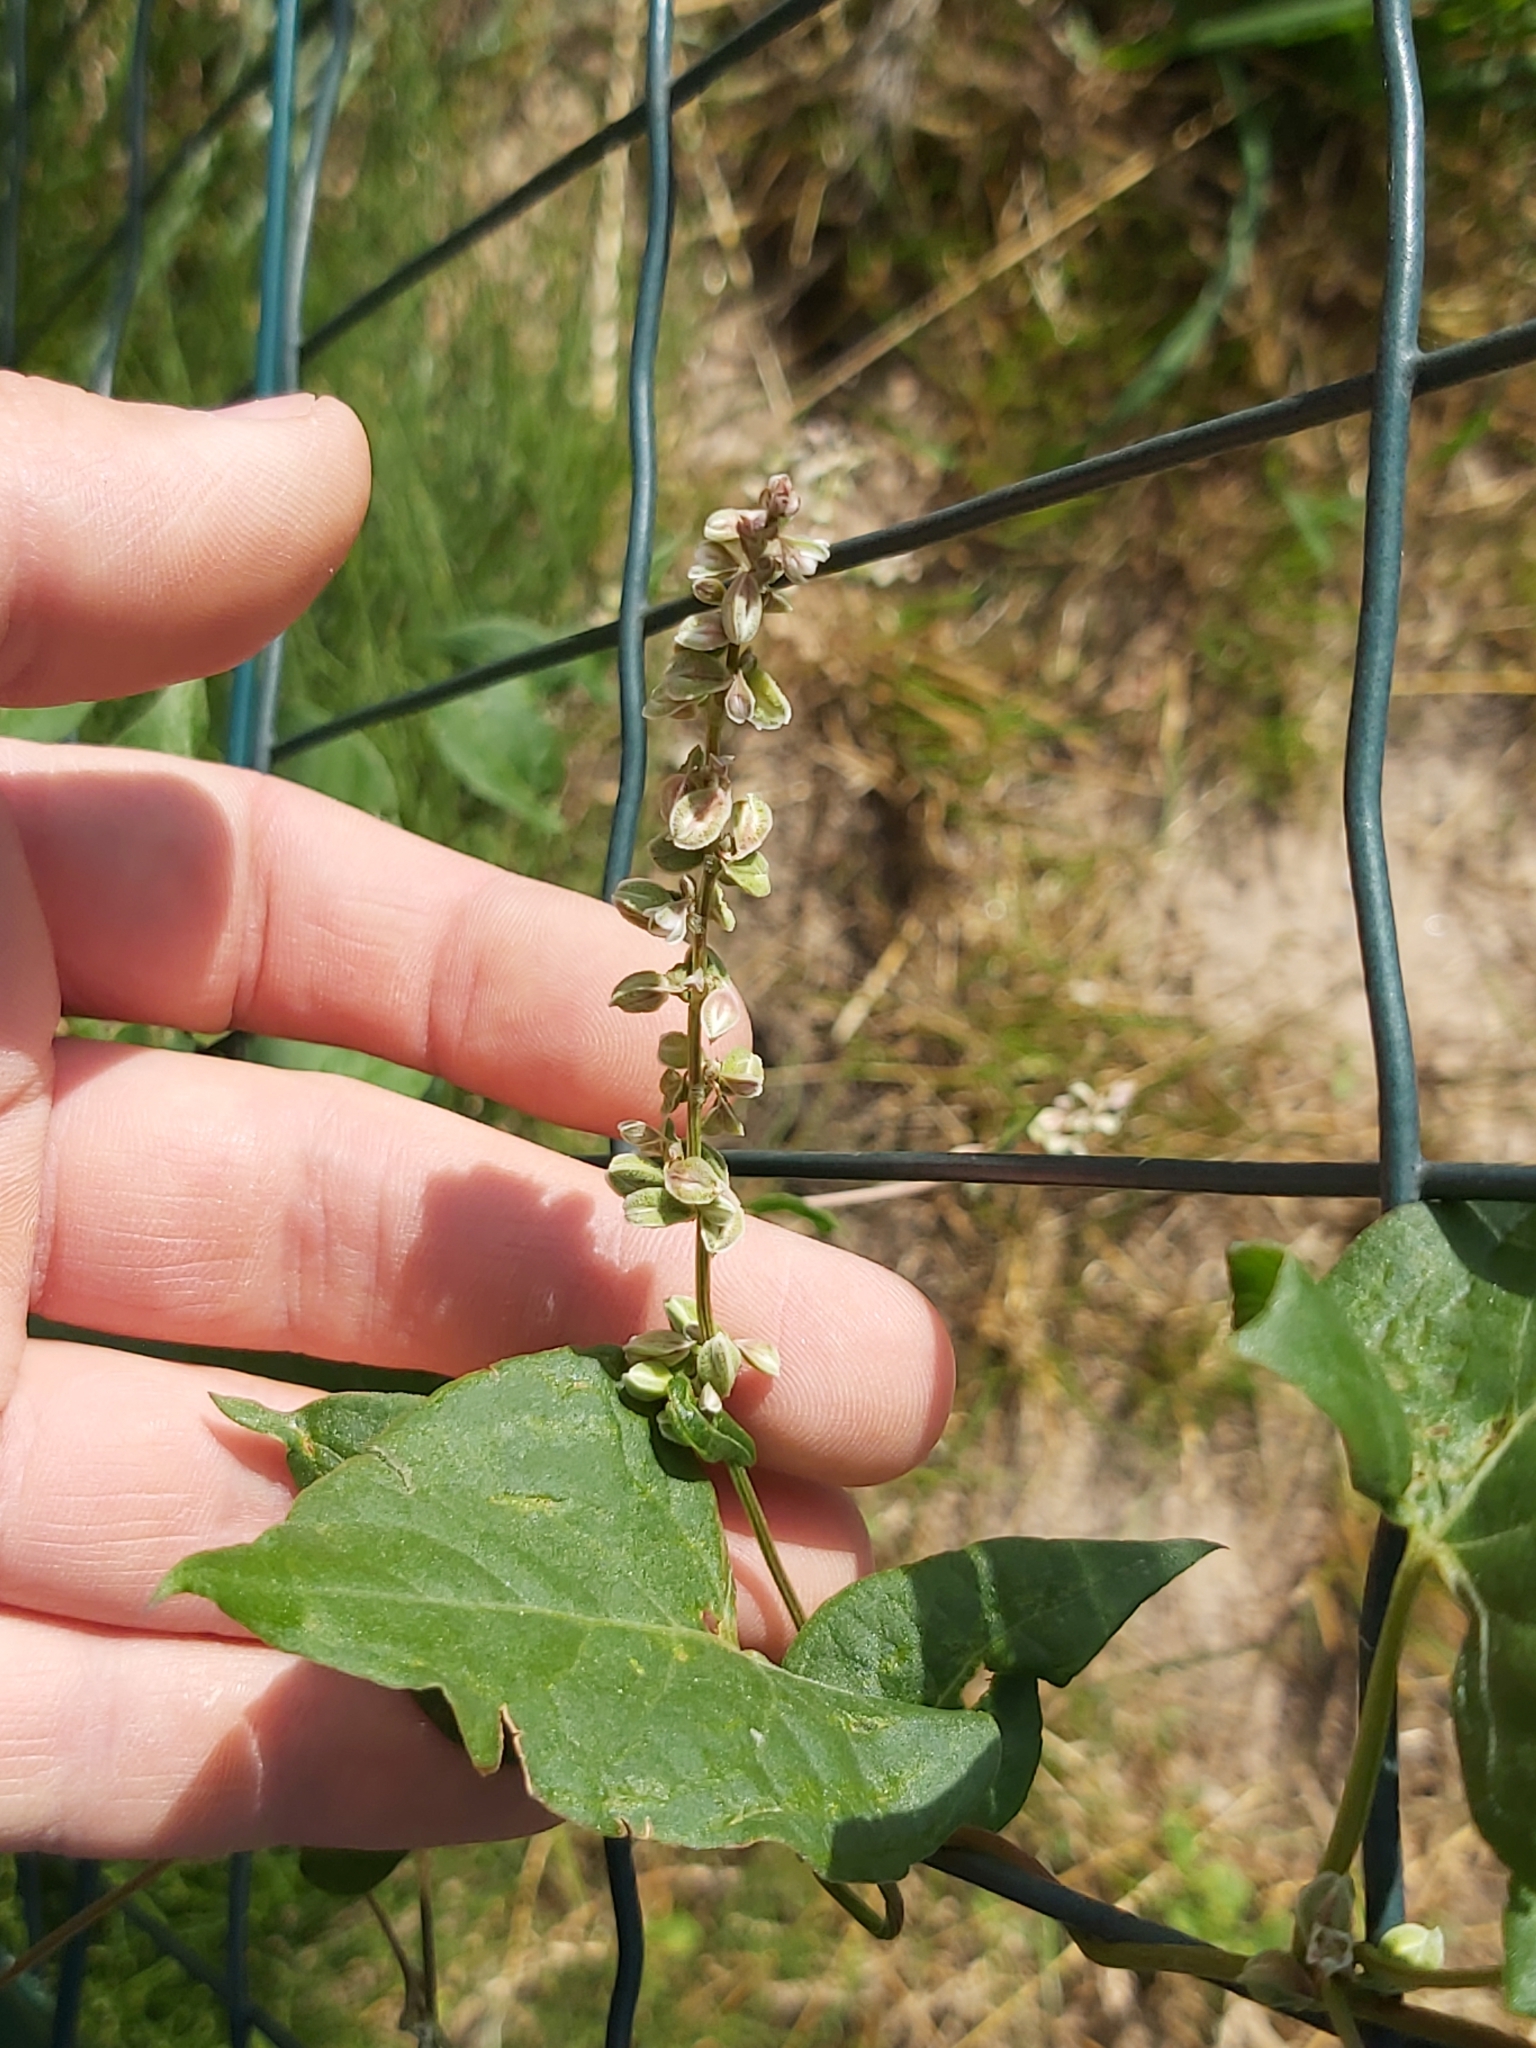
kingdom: Plantae
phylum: Tracheophyta
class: Magnoliopsida
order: Caryophyllales
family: Polygonaceae
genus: Fallopia
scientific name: Fallopia convolvulus
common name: Black bindweed
